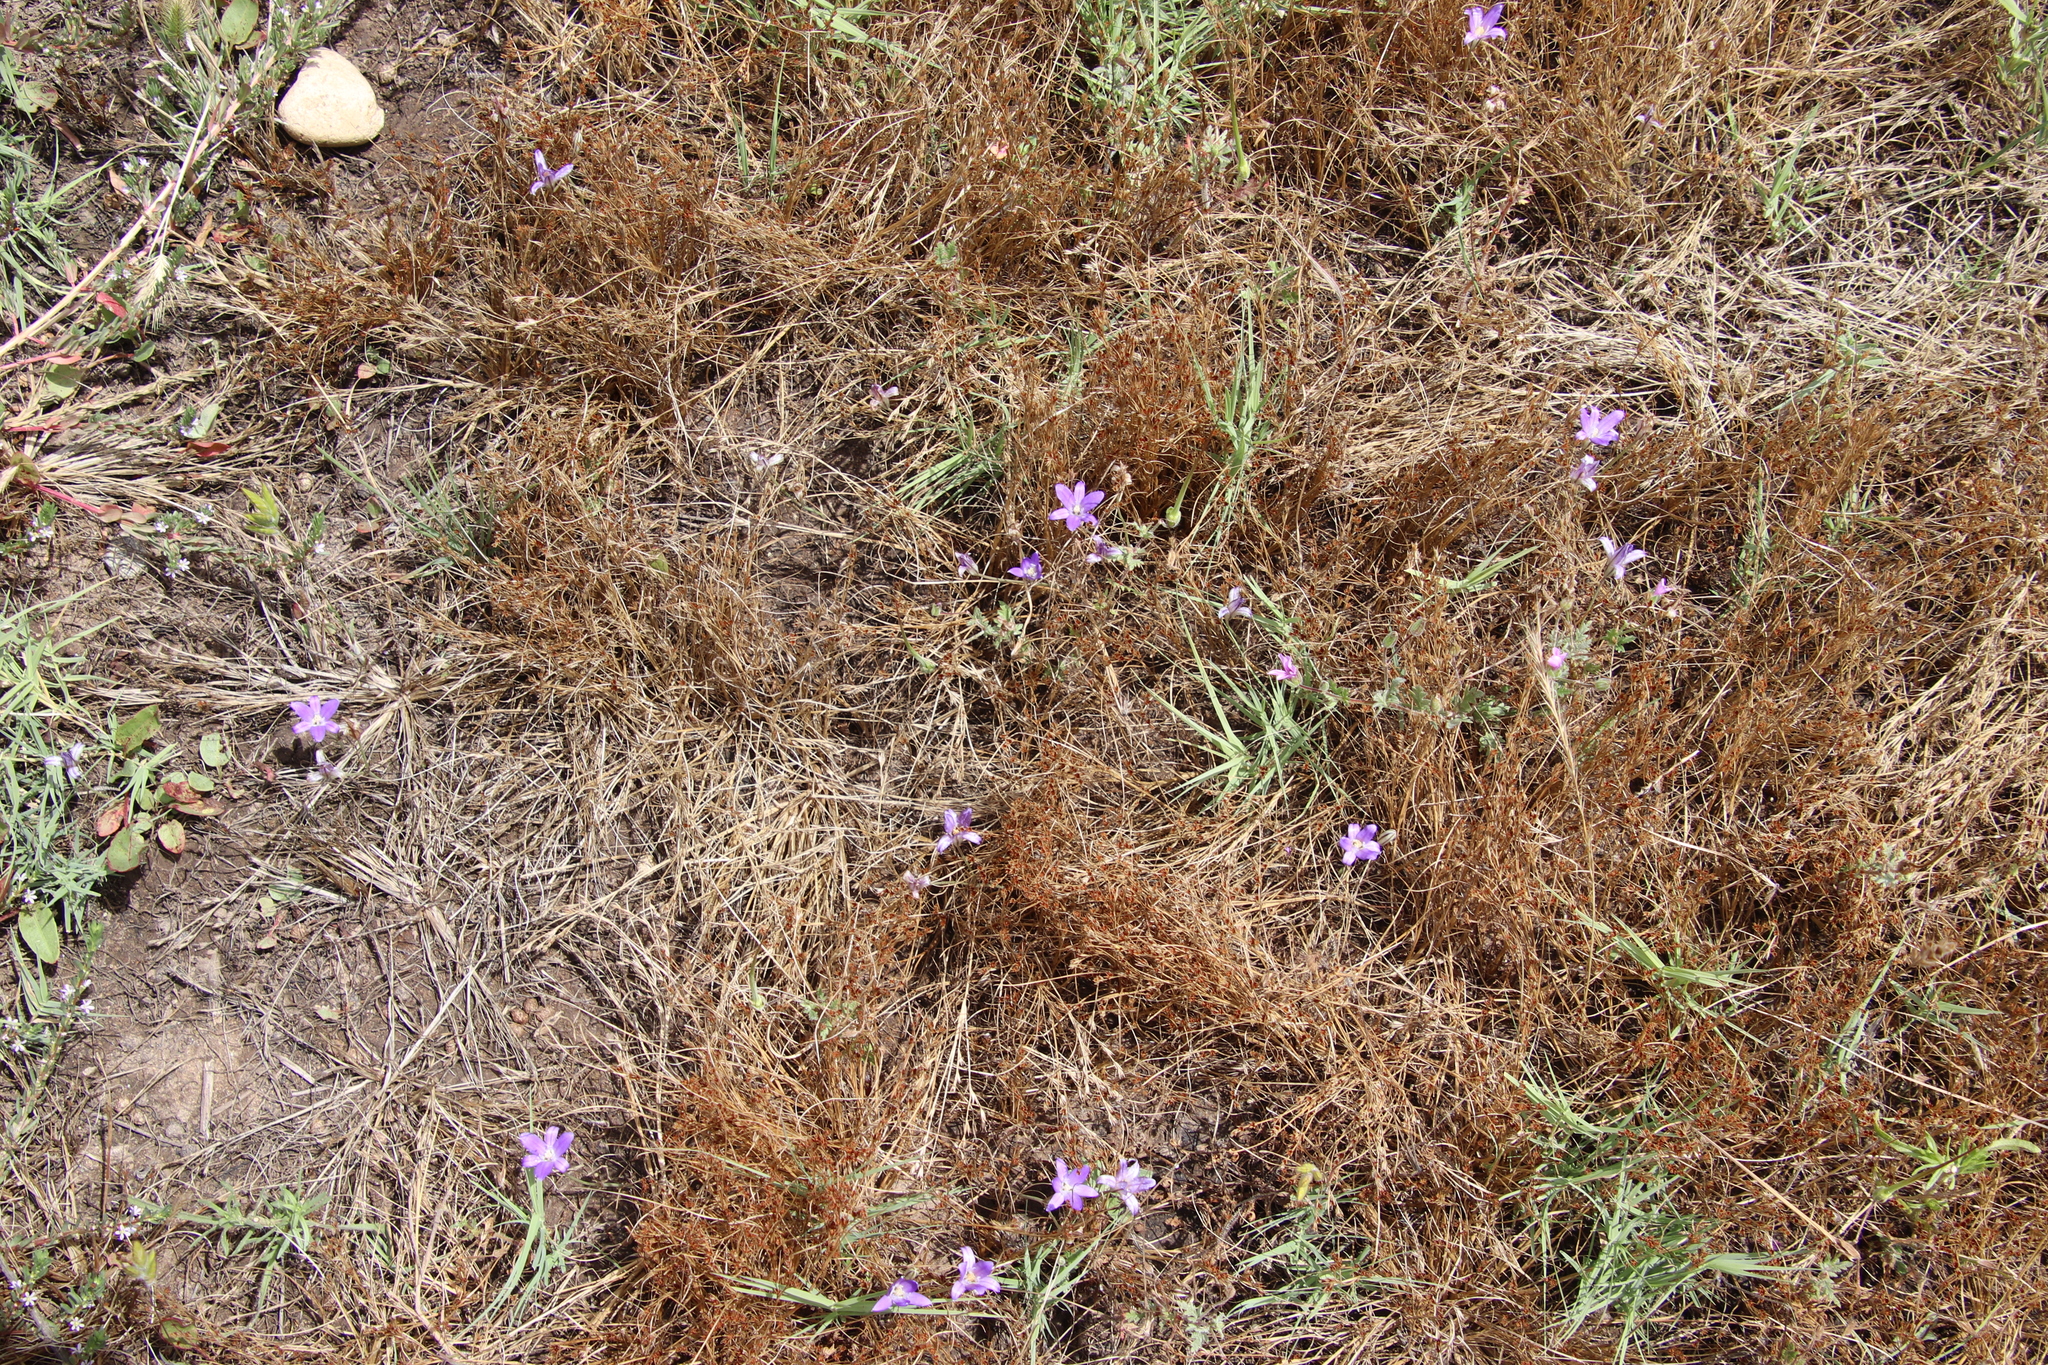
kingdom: Plantae
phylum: Tracheophyta
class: Liliopsida
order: Asparagales
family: Asparagaceae
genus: Brodiaea
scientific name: Brodiaea terrestris
